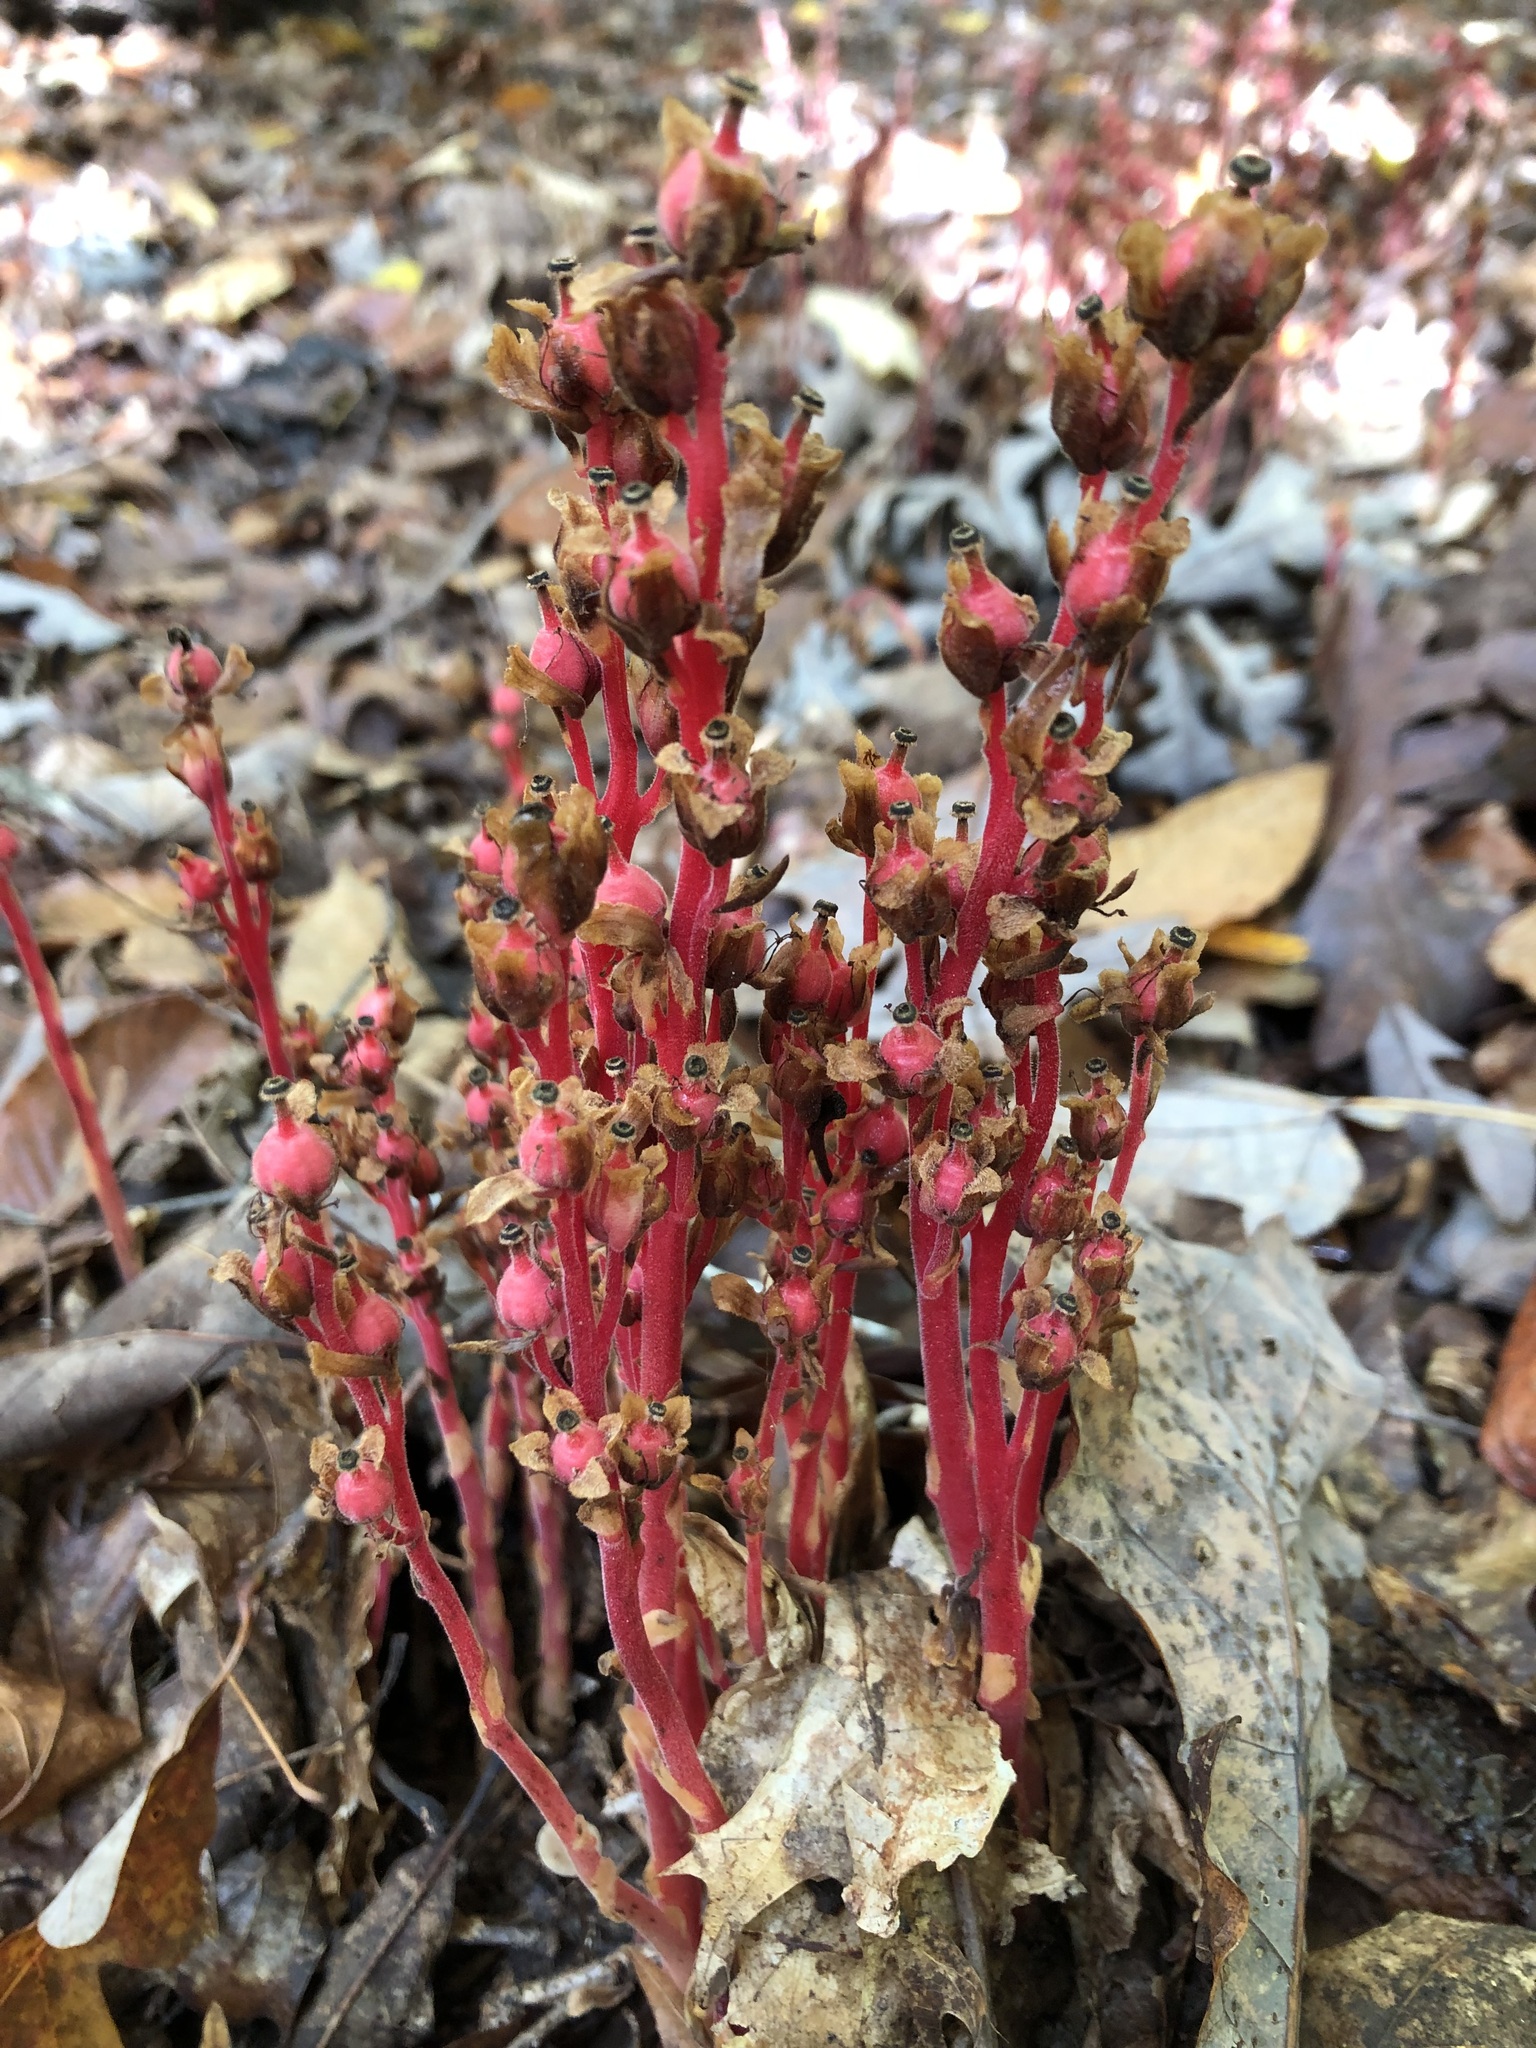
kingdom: Plantae
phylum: Tracheophyta
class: Magnoliopsida
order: Ericales
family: Ericaceae
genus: Hypopitys
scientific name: Hypopitys monotropa
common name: Yellow bird's-nest
